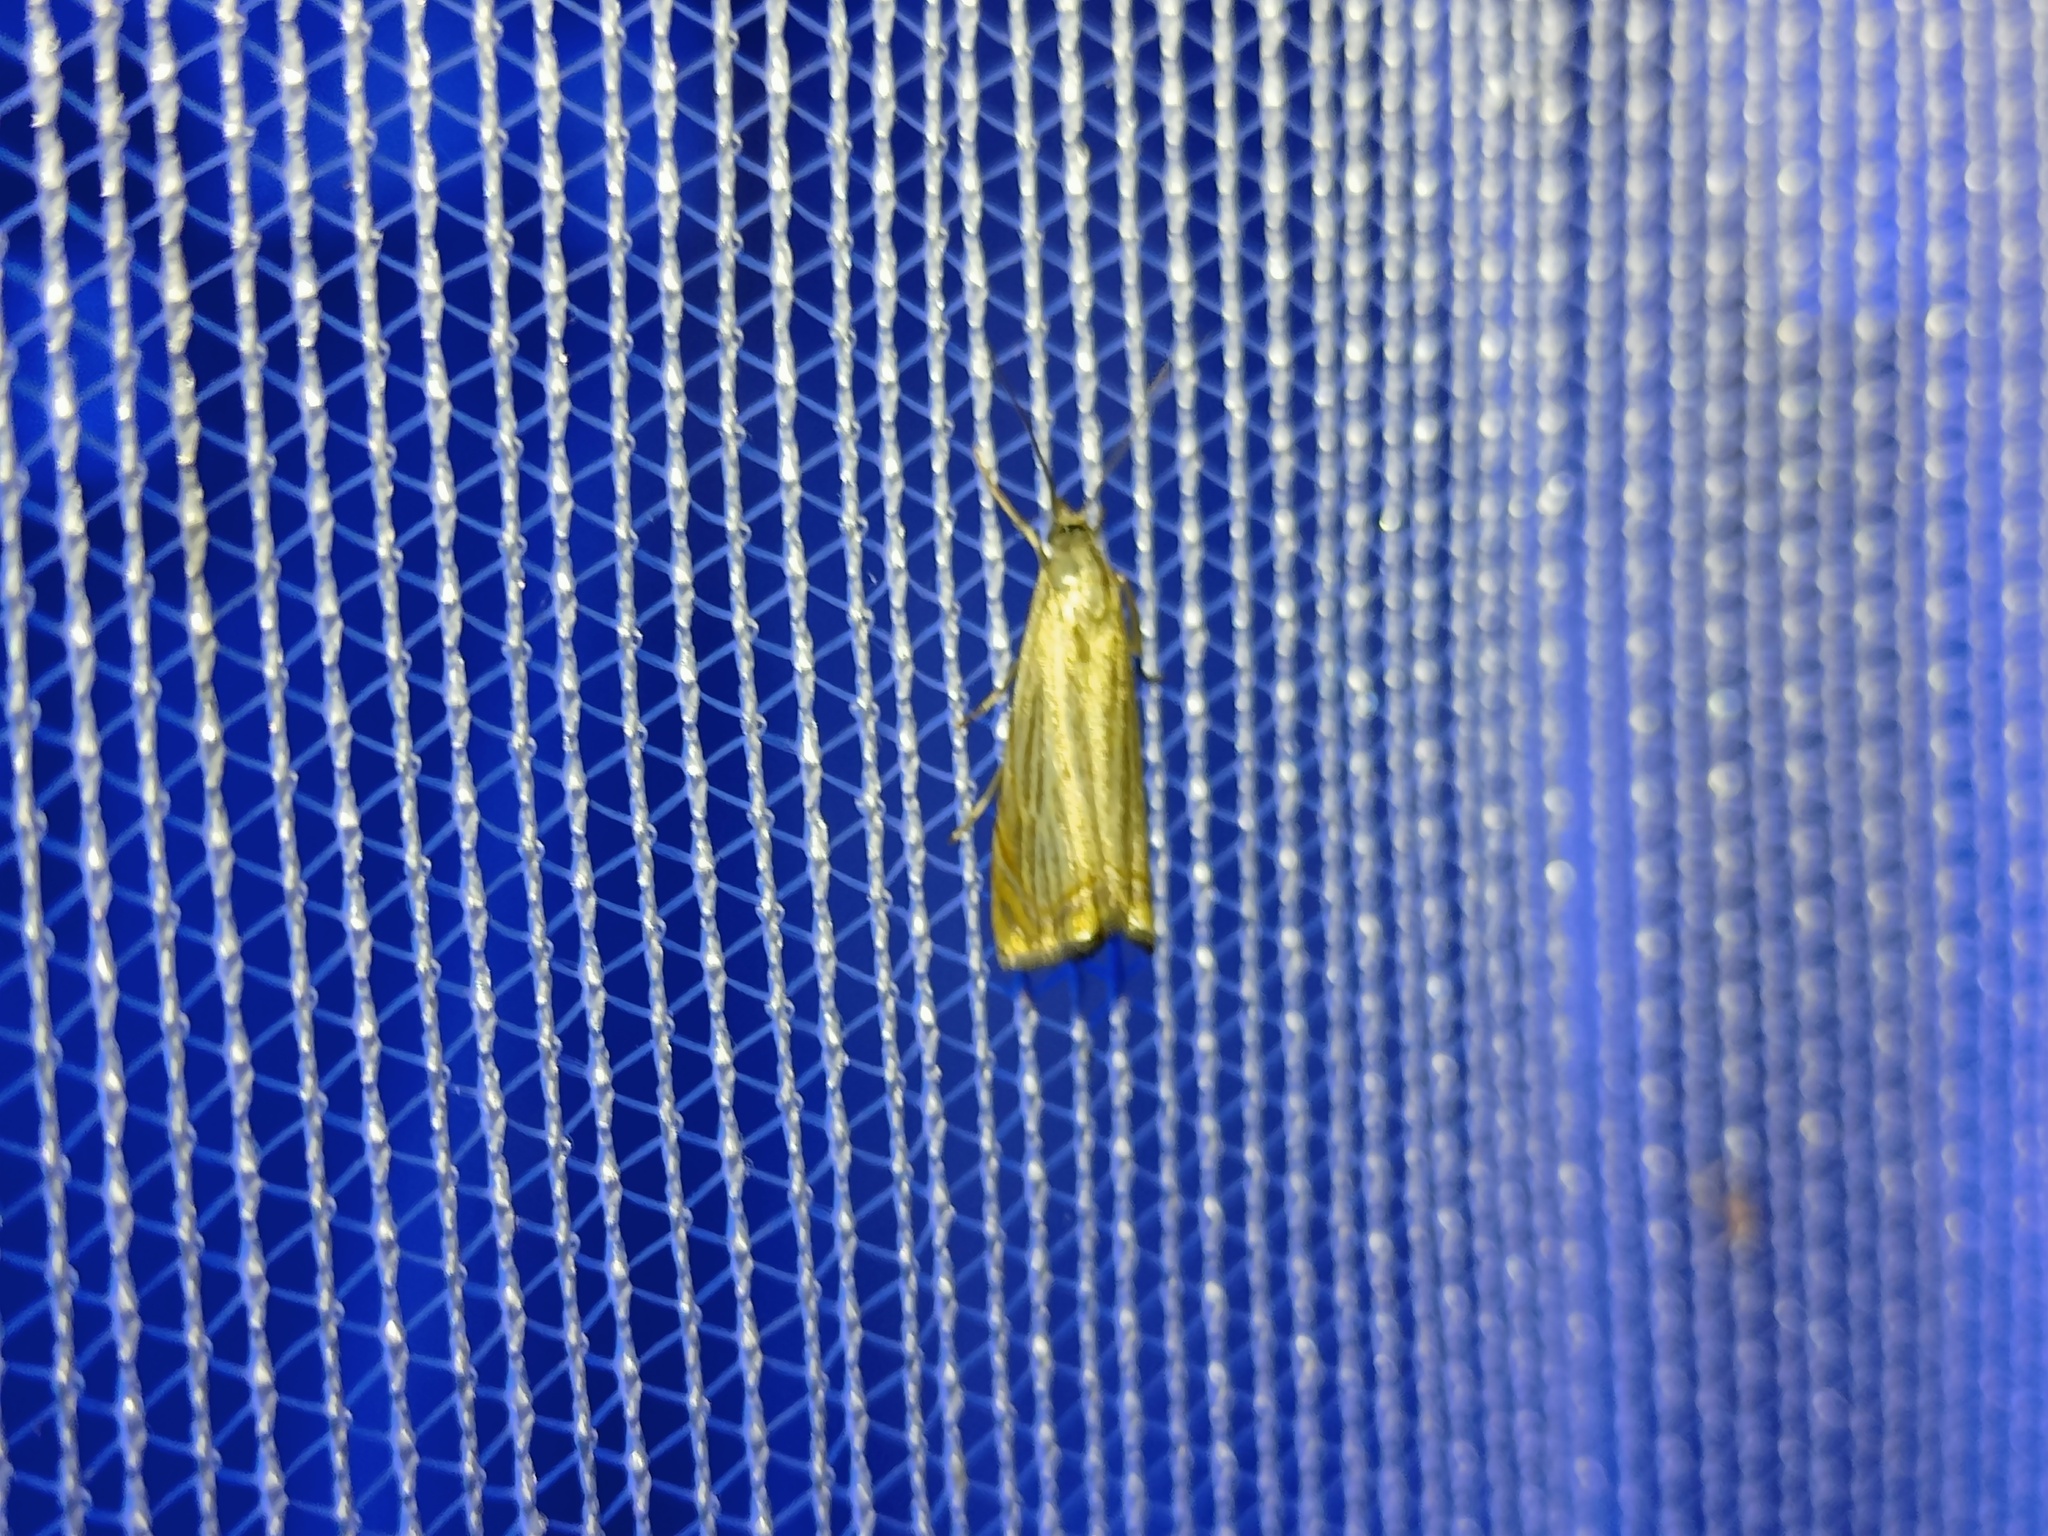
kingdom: Animalia
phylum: Arthropoda
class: Insecta
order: Lepidoptera
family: Crambidae
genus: Chrysoteuchia
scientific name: Chrysoteuchia culmella
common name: Garden grass-veneer
